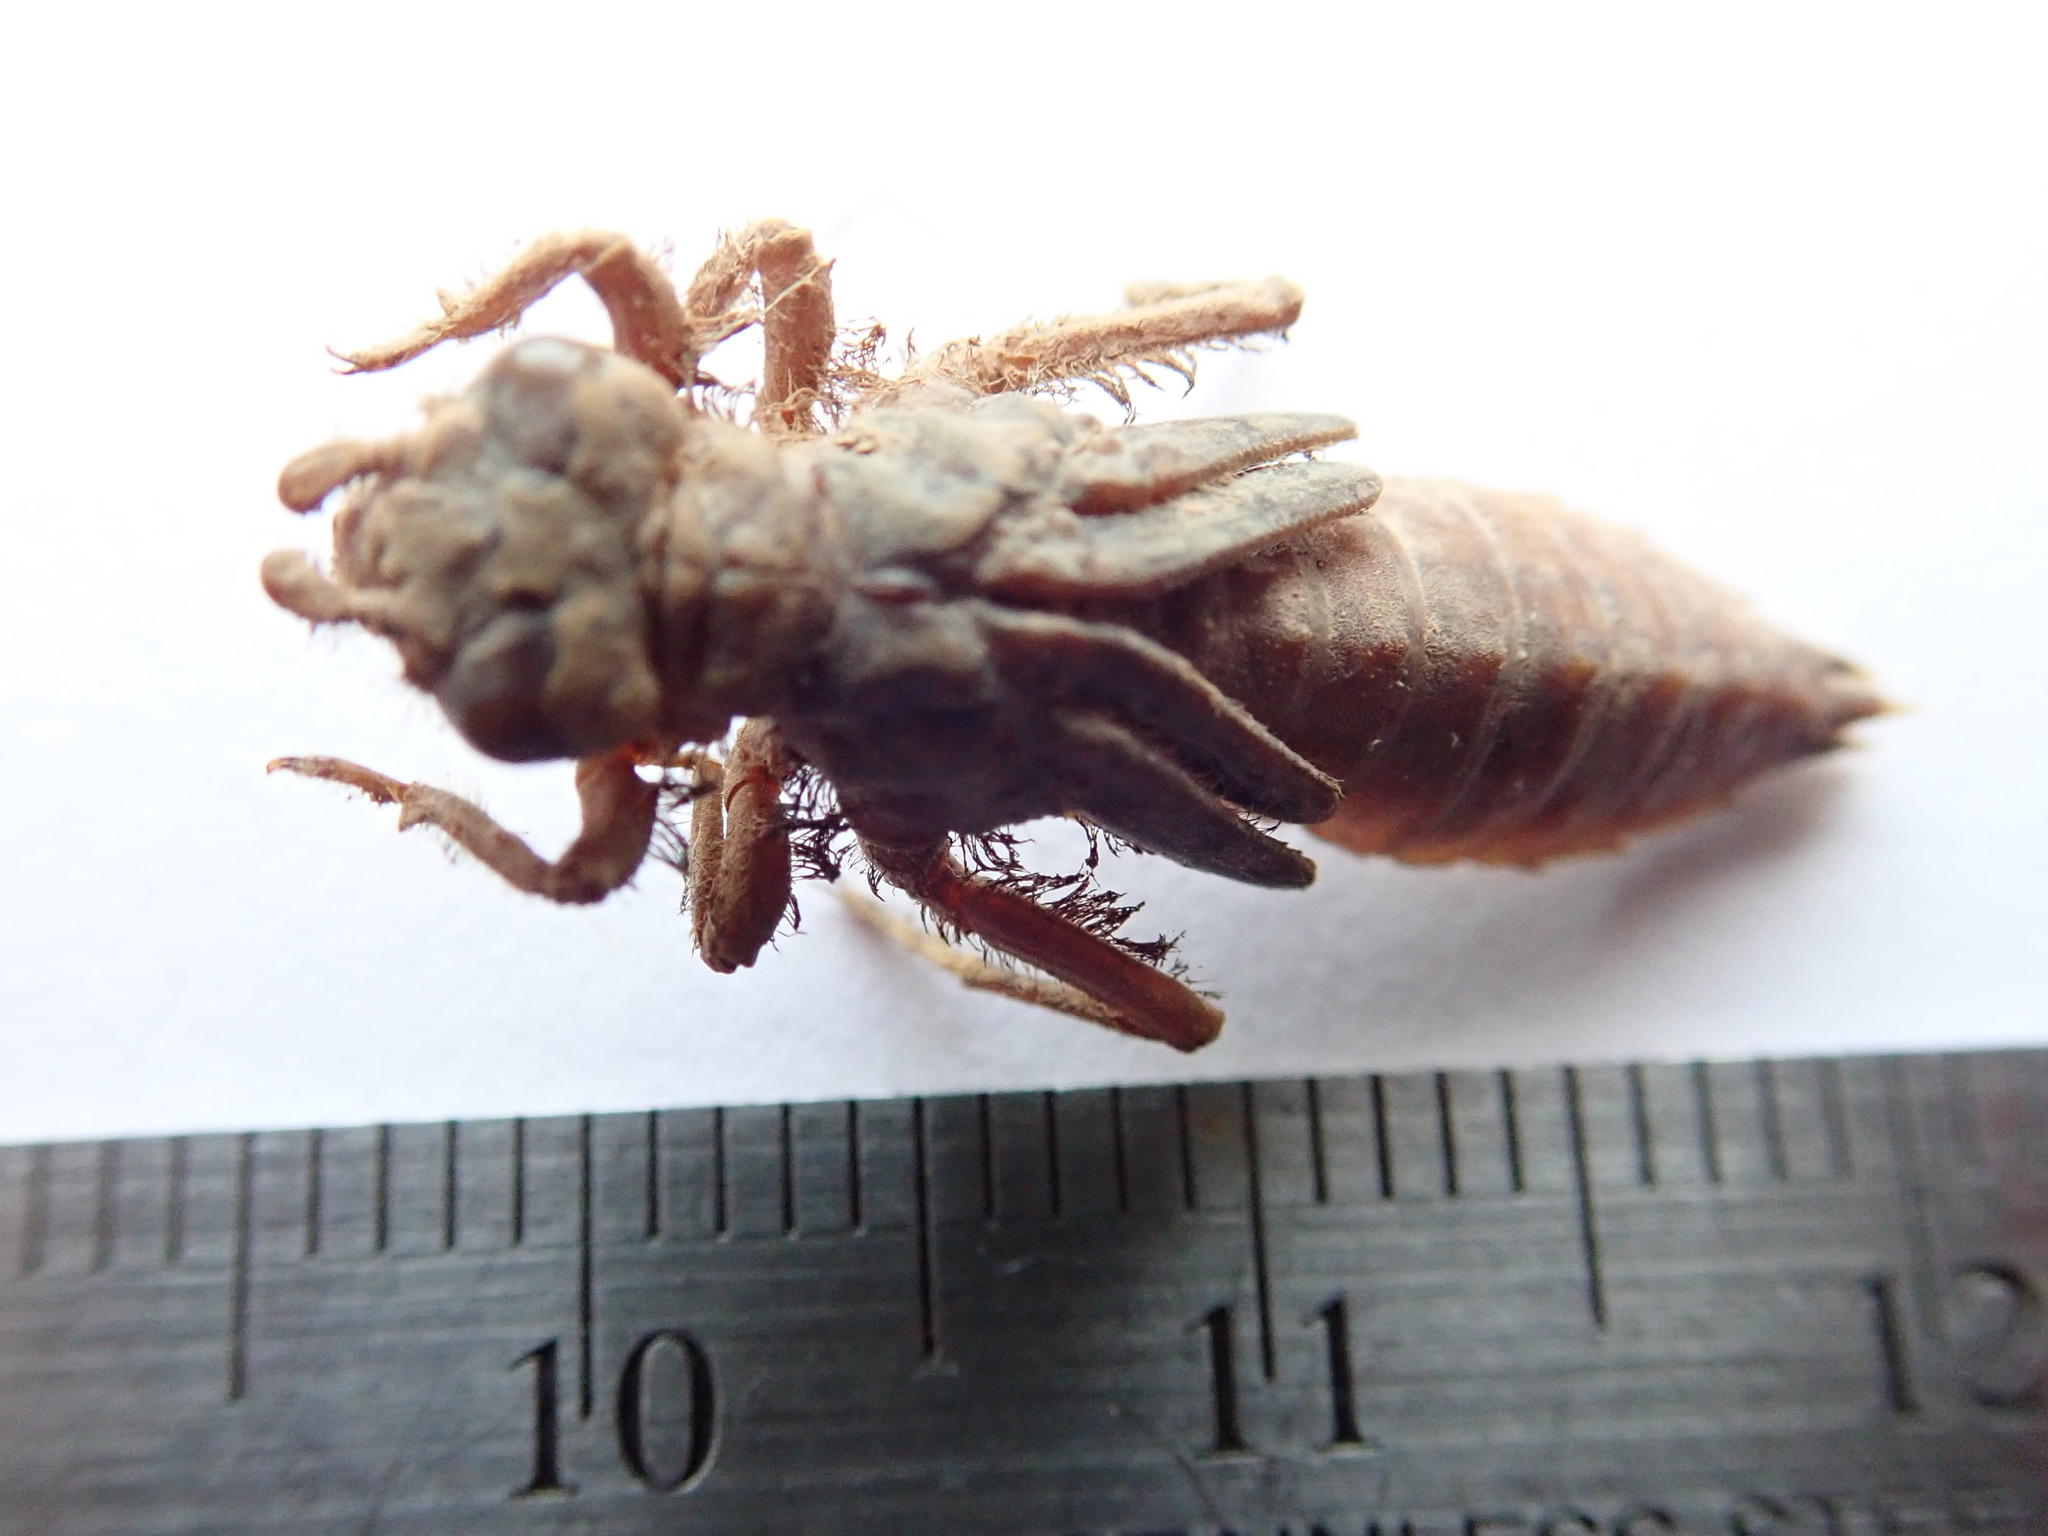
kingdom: Animalia
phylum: Arthropoda
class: Insecta
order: Odonata
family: Gomphidae
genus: Ophiogomphus
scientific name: Ophiogomphus anomalus
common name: Extra-striped snaketail
